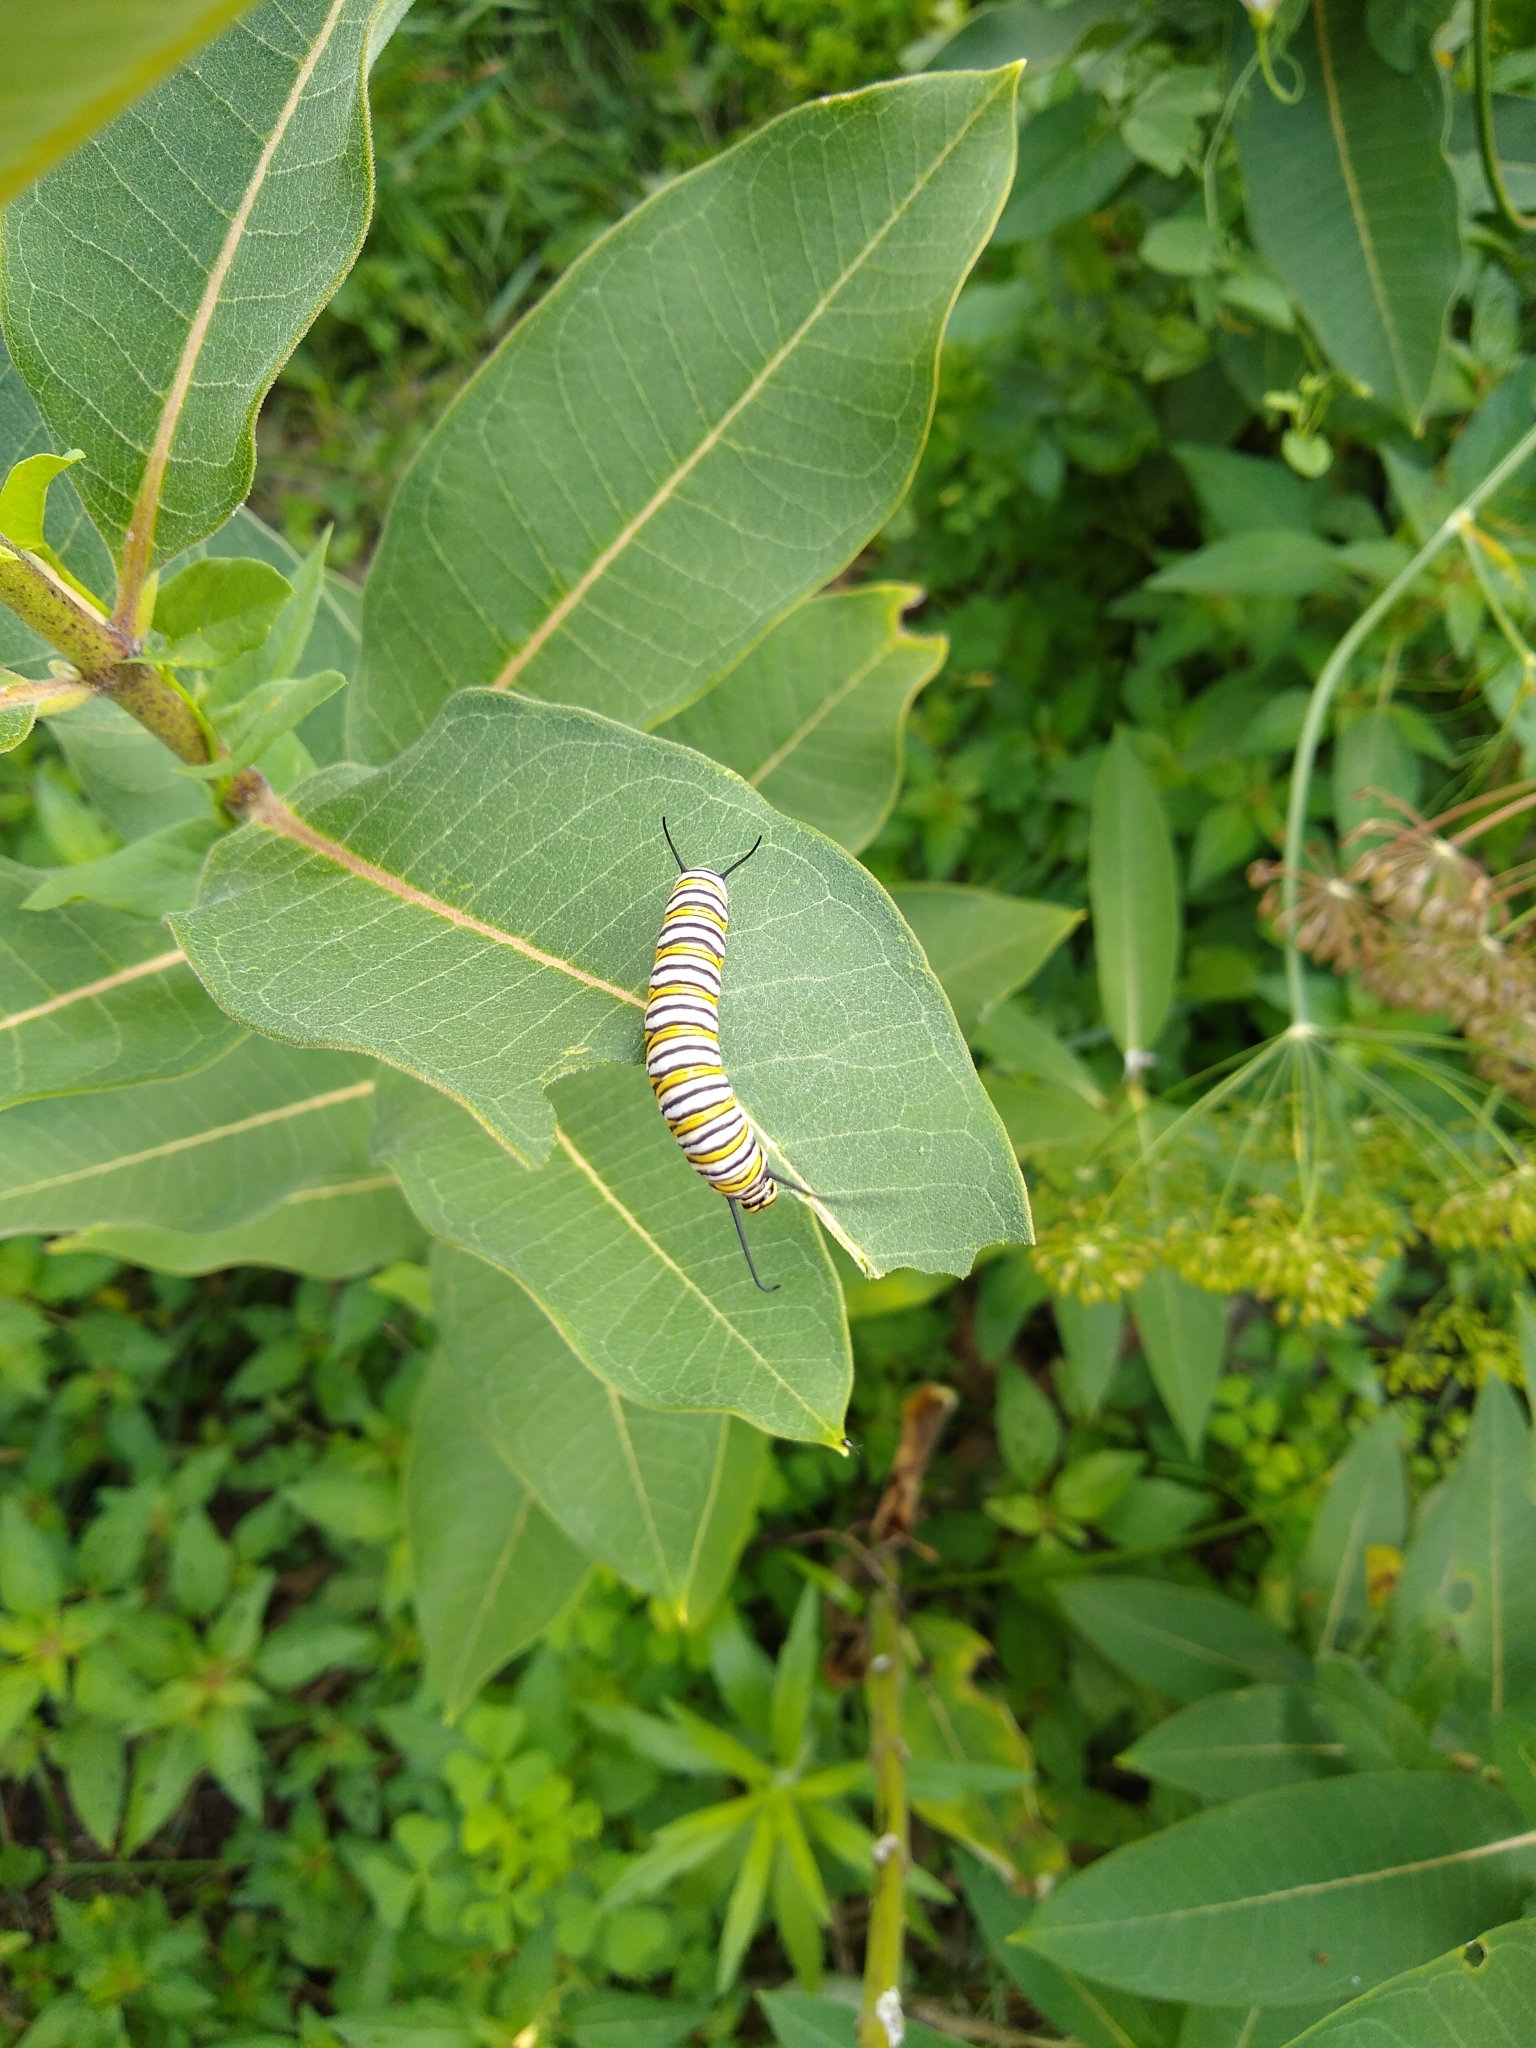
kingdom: Animalia
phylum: Arthropoda
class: Insecta
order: Lepidoptera
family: Nymphalidae
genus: Danaus
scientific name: Danaus plexippus
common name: Monarch
